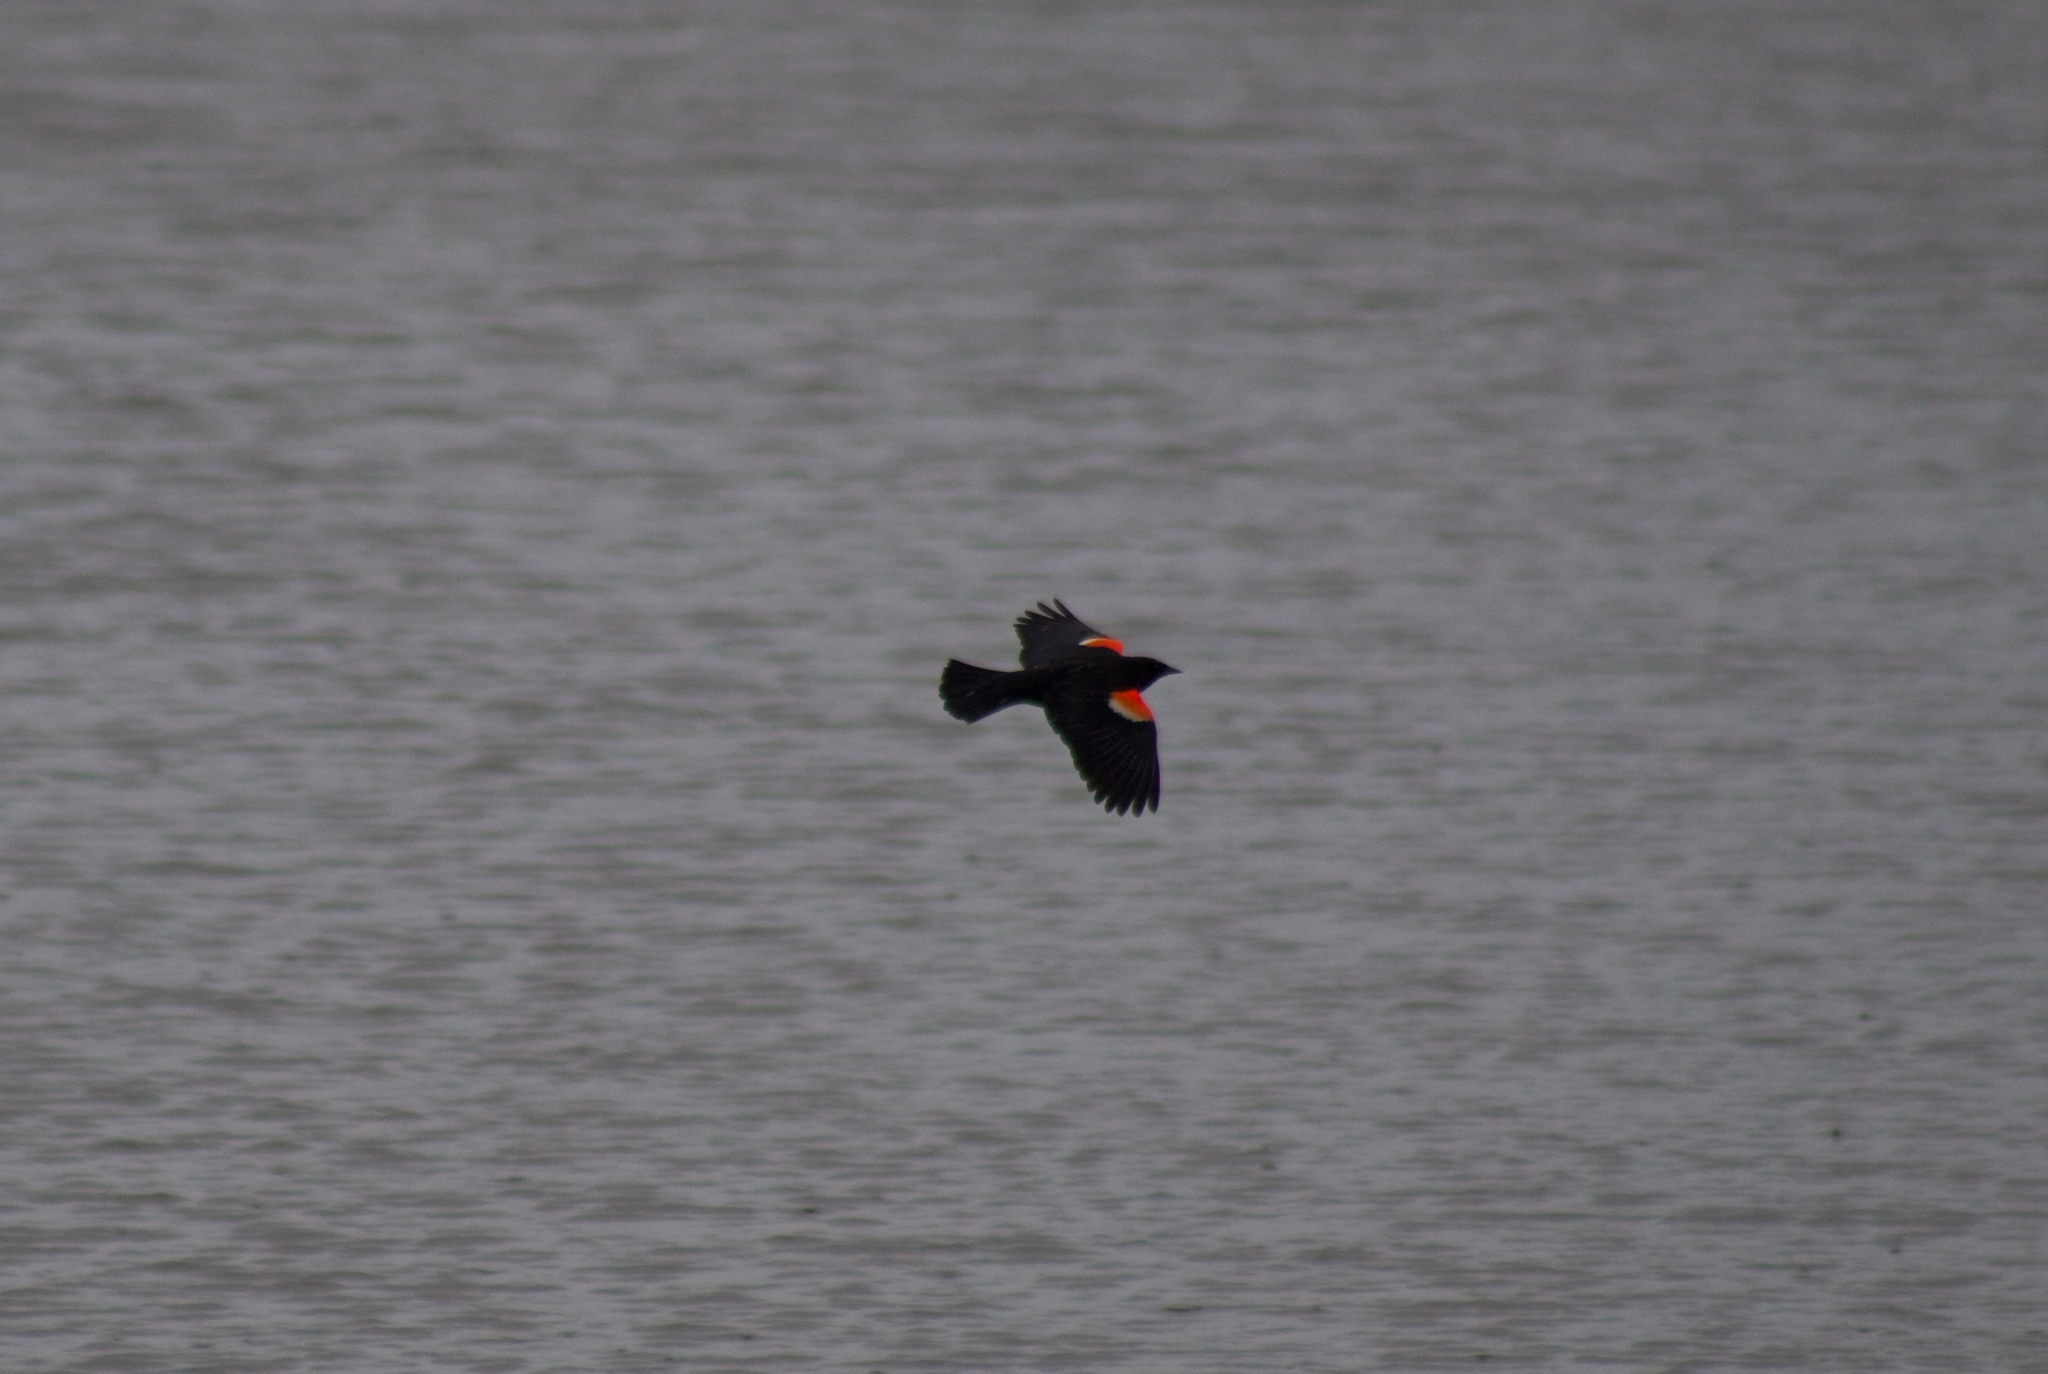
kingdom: Animalia
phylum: Chordata
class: Aves
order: Passeriformes
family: Icteridae
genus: Agelaius
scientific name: Agelaius phoeniceus
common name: Red-winged blackbird
